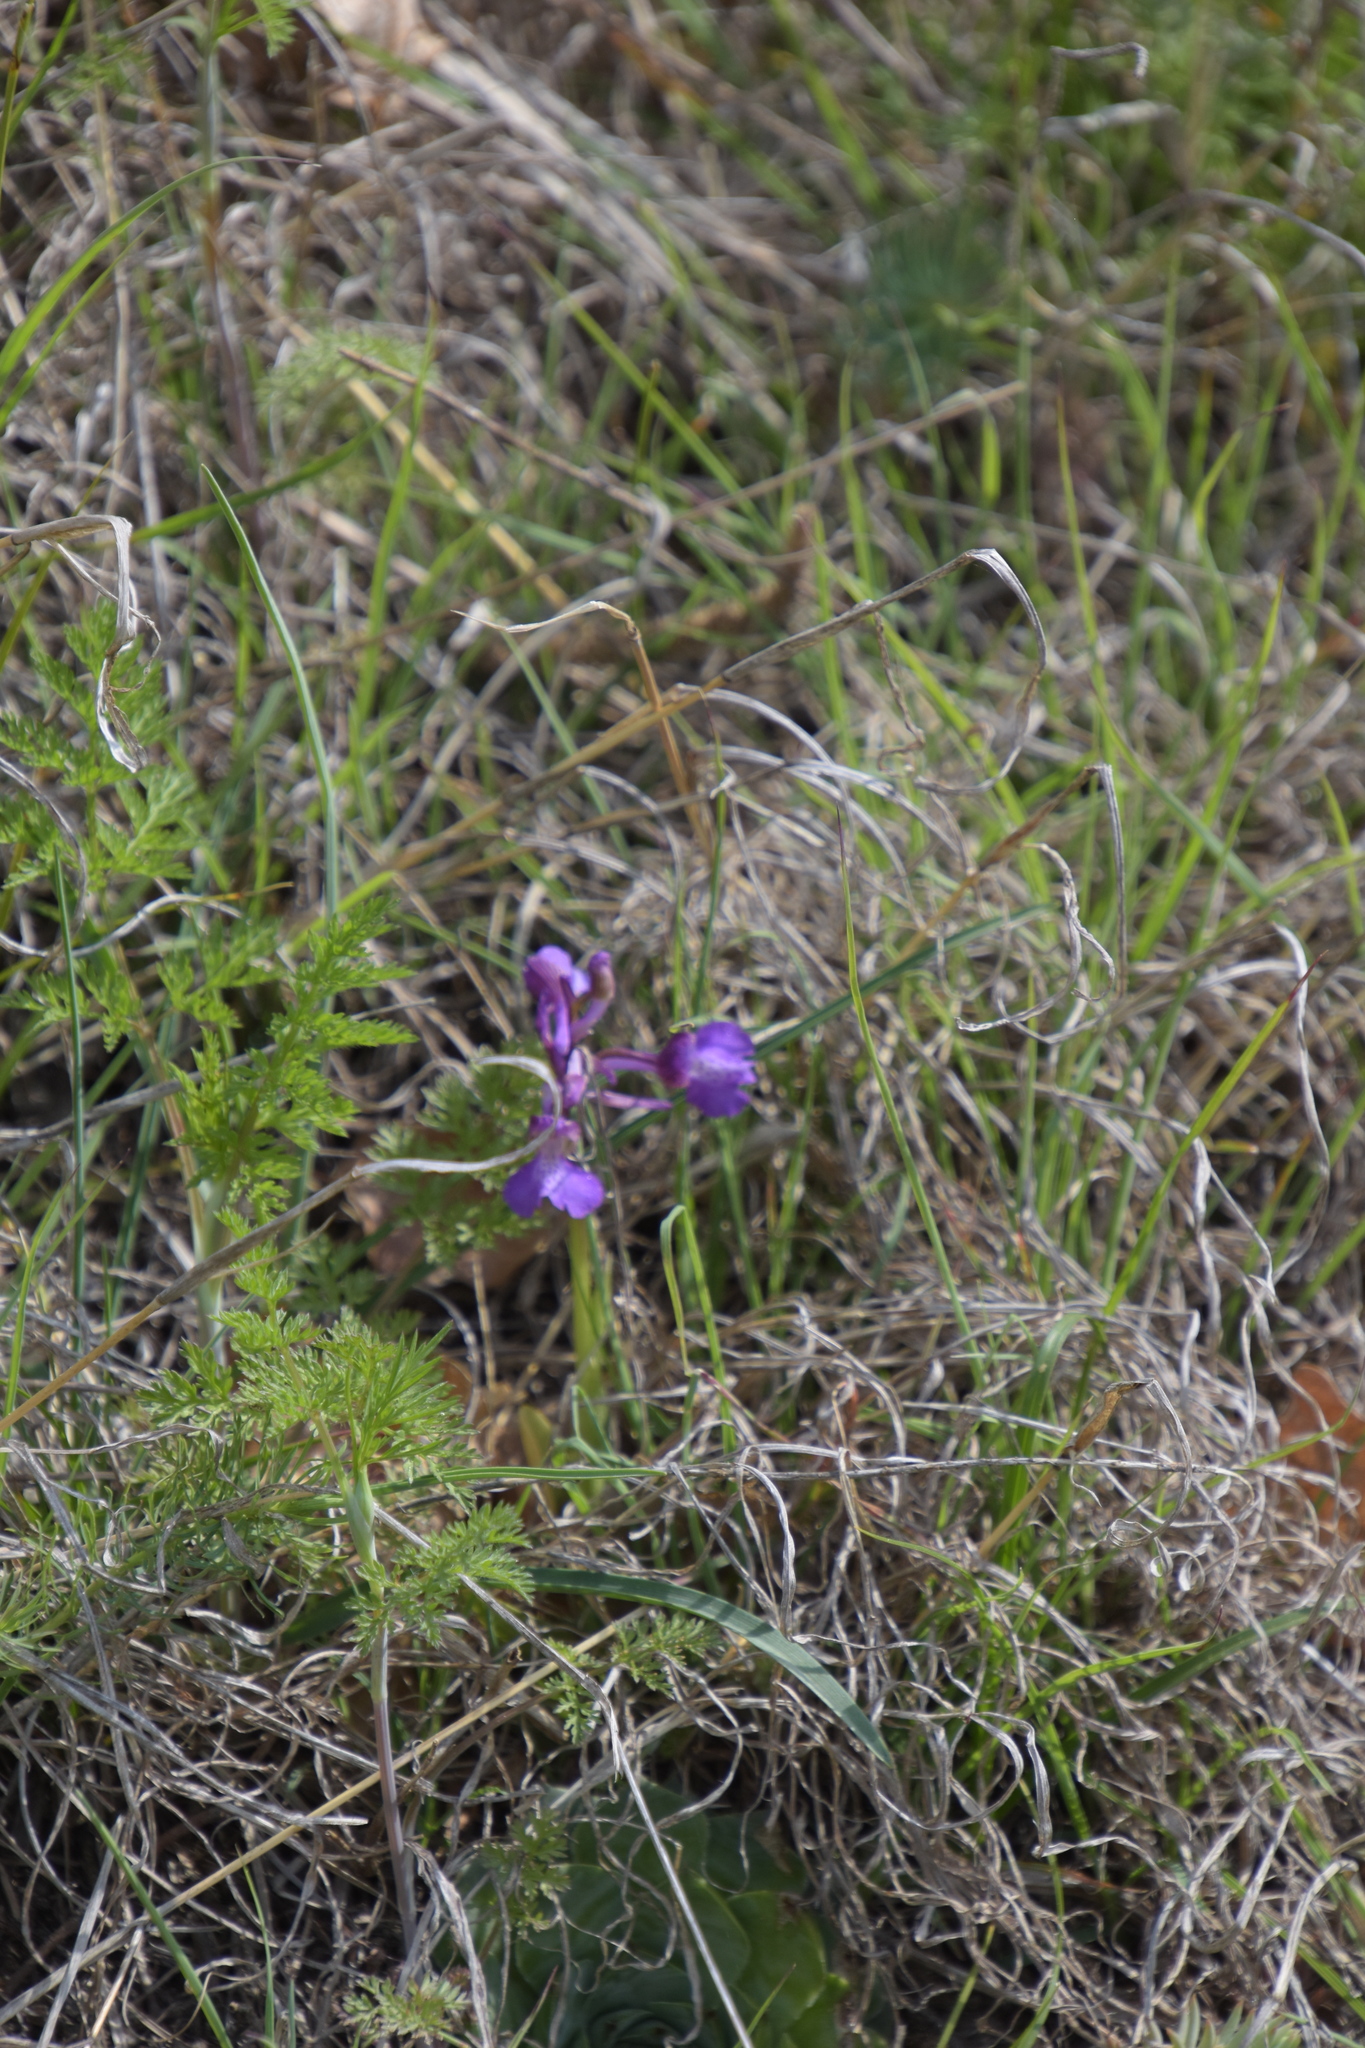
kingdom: Plantae
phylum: Tracheophyta
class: Liliopsida
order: Asparagales
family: Orchidaceae
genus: Anacamptis
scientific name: Anacamptis morio
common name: Green-winged orchid
